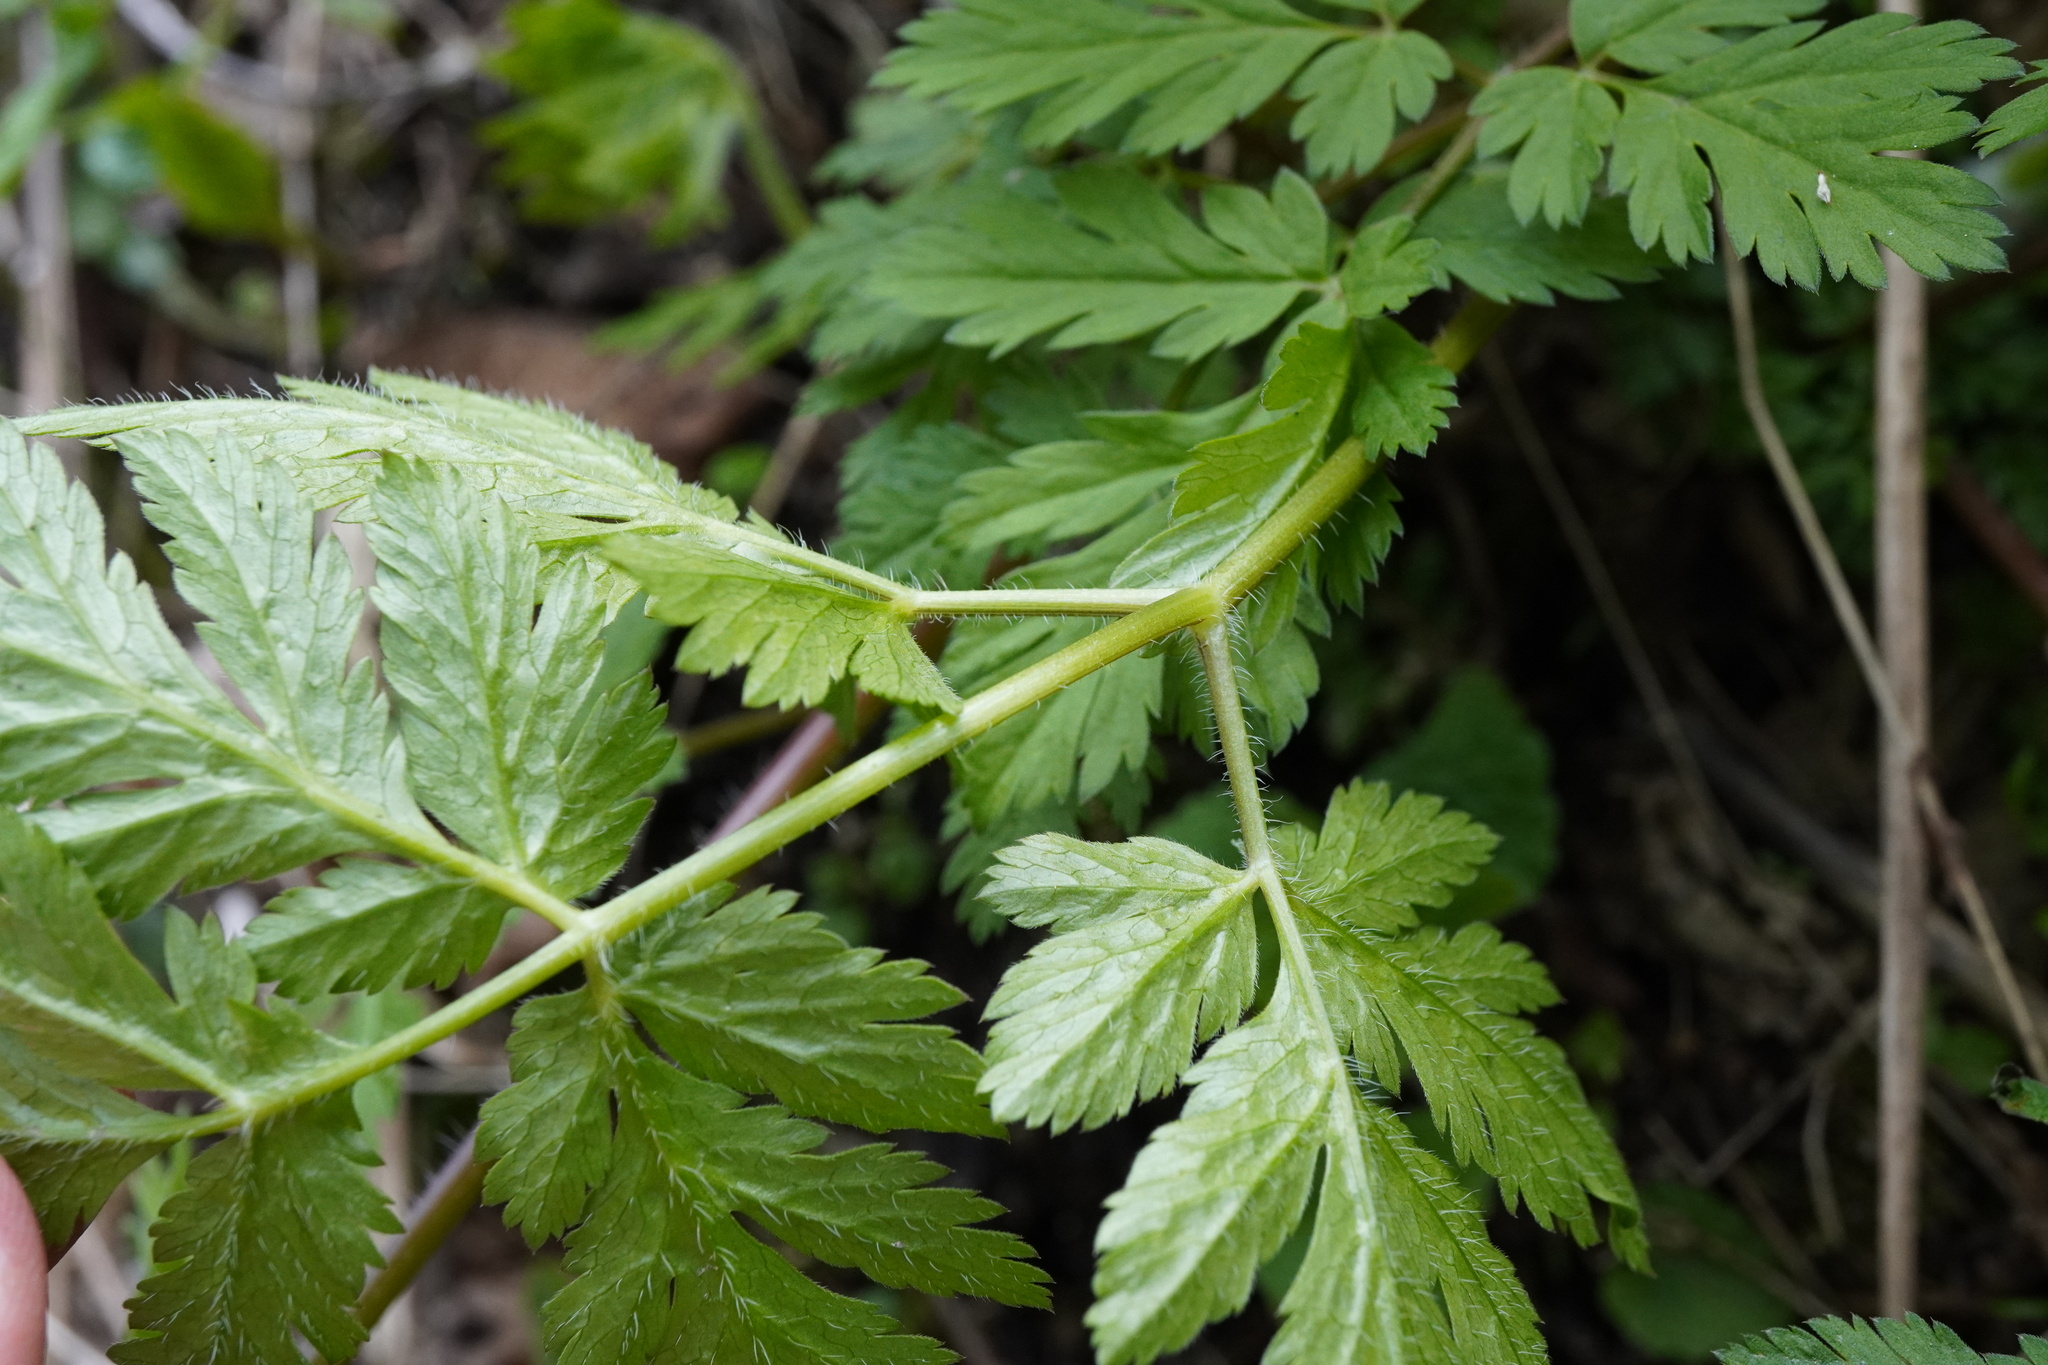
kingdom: Plantae
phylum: Tracheophyta
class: Magnoliopsida
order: Apiales
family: Apiaceae
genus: Chaerophyllum
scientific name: Chaerophyllum hirsutum
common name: Hairy chervil
